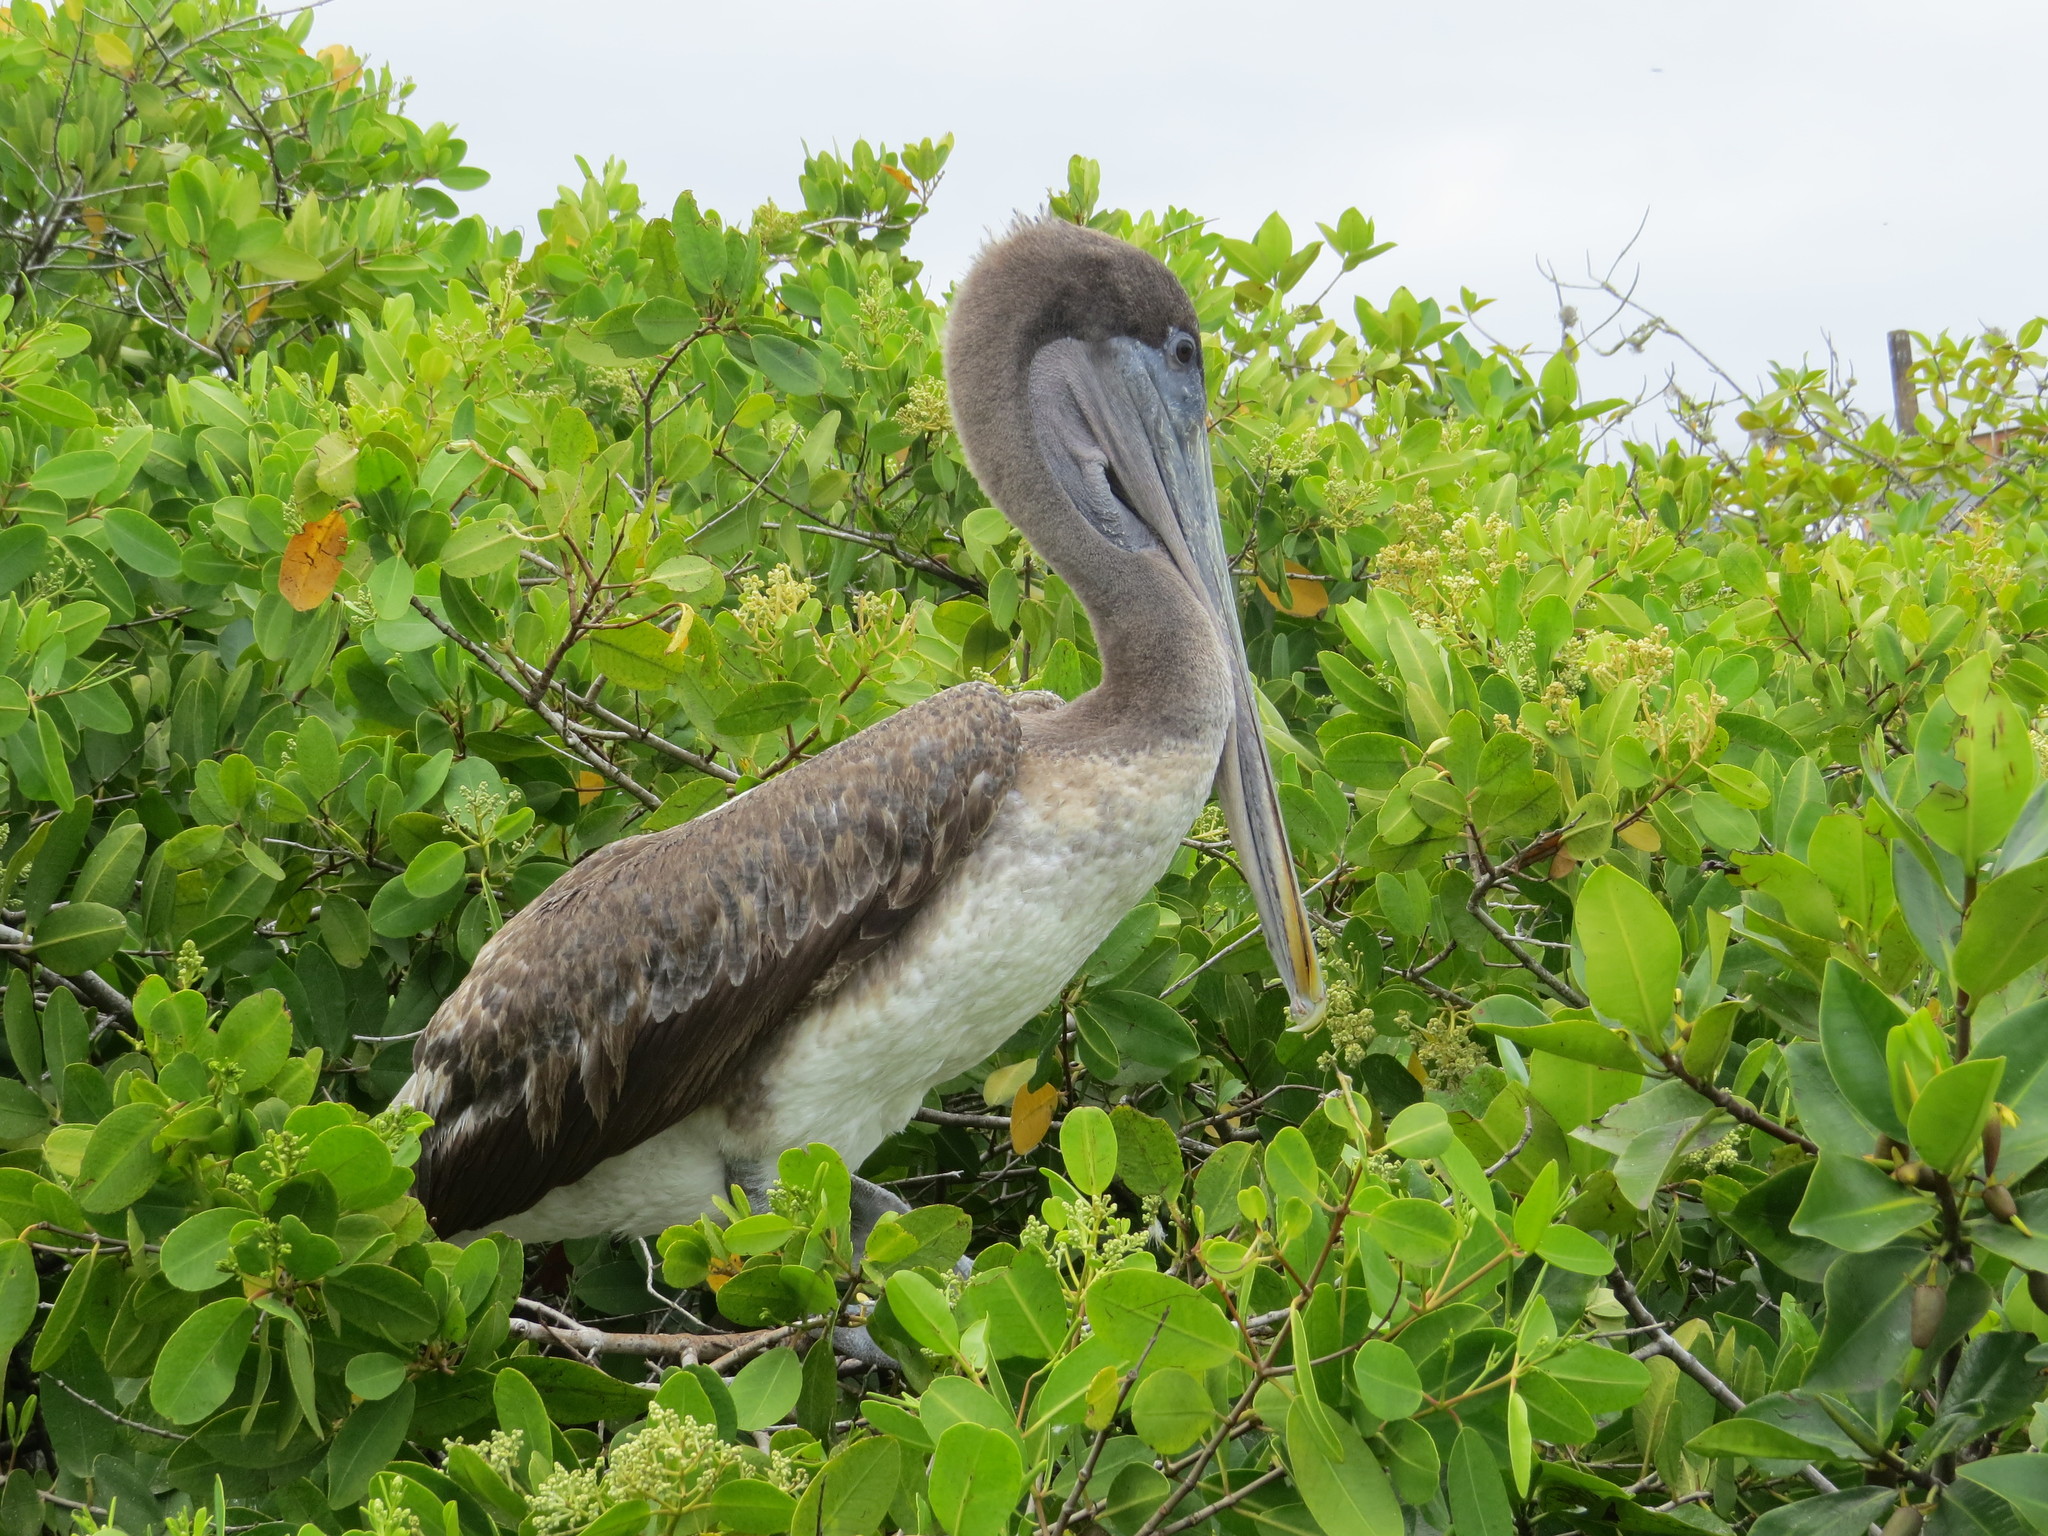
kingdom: Animalia
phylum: Chordata
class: Aves
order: Pelecaniformes
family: Pelecanidae
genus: Pelecanus
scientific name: Pelecanus occidentalis
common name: Brown pelican
